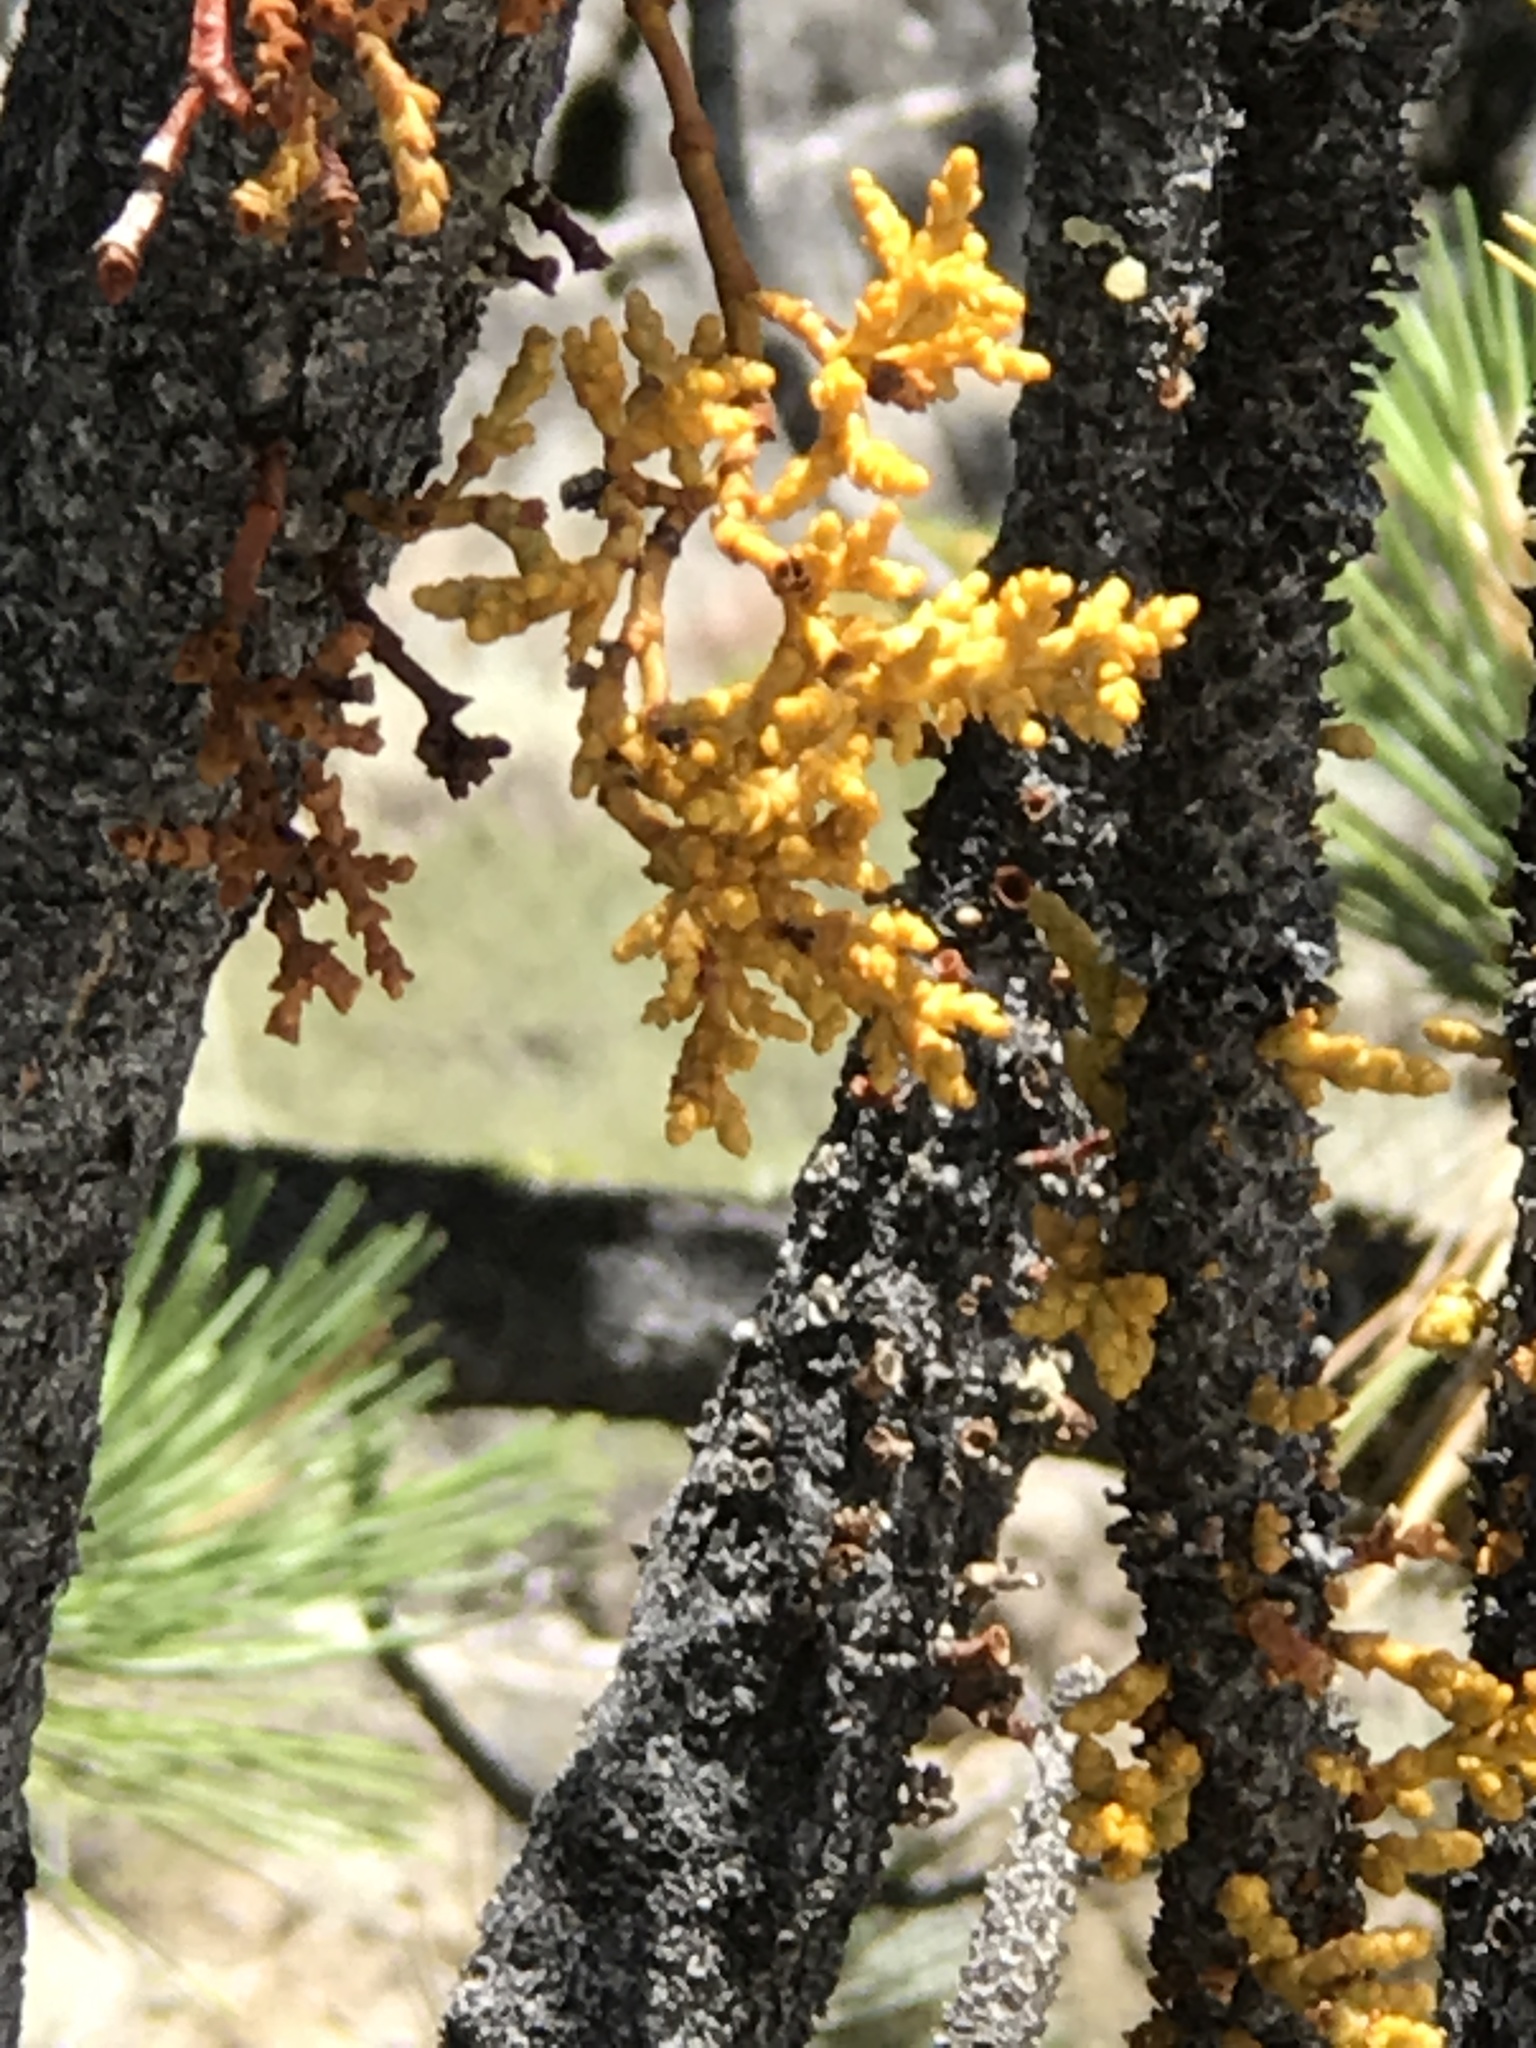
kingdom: Plantae
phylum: Tracheophyta
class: Magnoliopsida
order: Santalales
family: Viscaceae
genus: Arceuthobium
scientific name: Arceuthobium campylopodum
